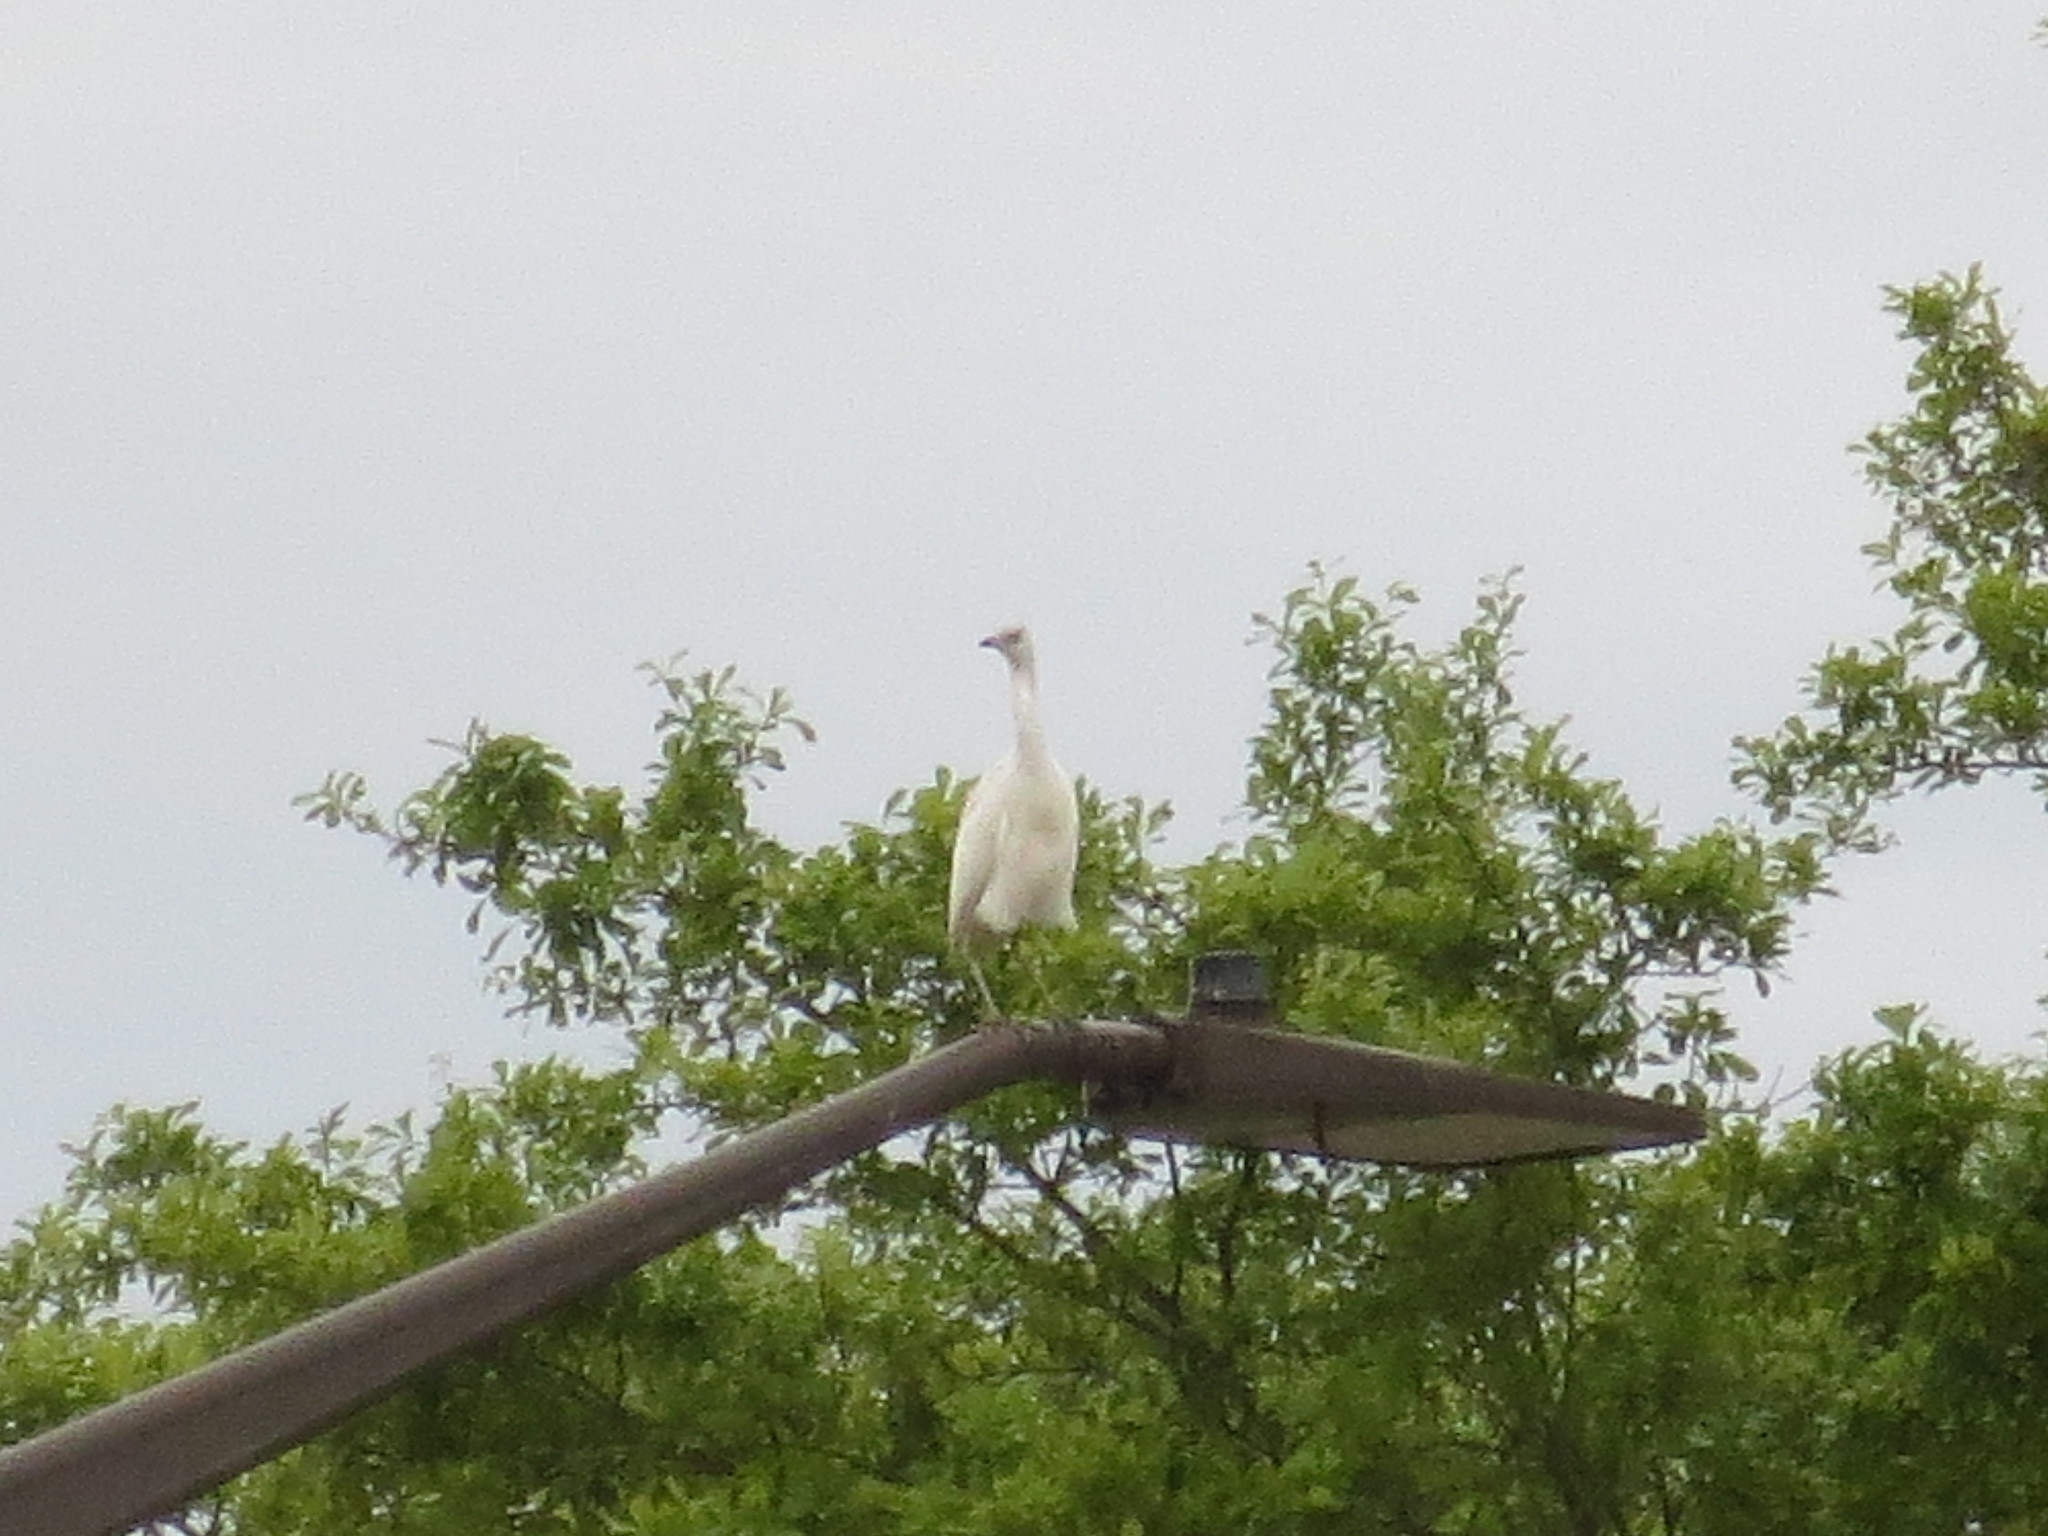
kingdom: Animalia
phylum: Chordata
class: Aves
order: Pelecaniformes
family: Ardeidae
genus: Egretta
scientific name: Egretta caerulea
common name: Little blue heron
